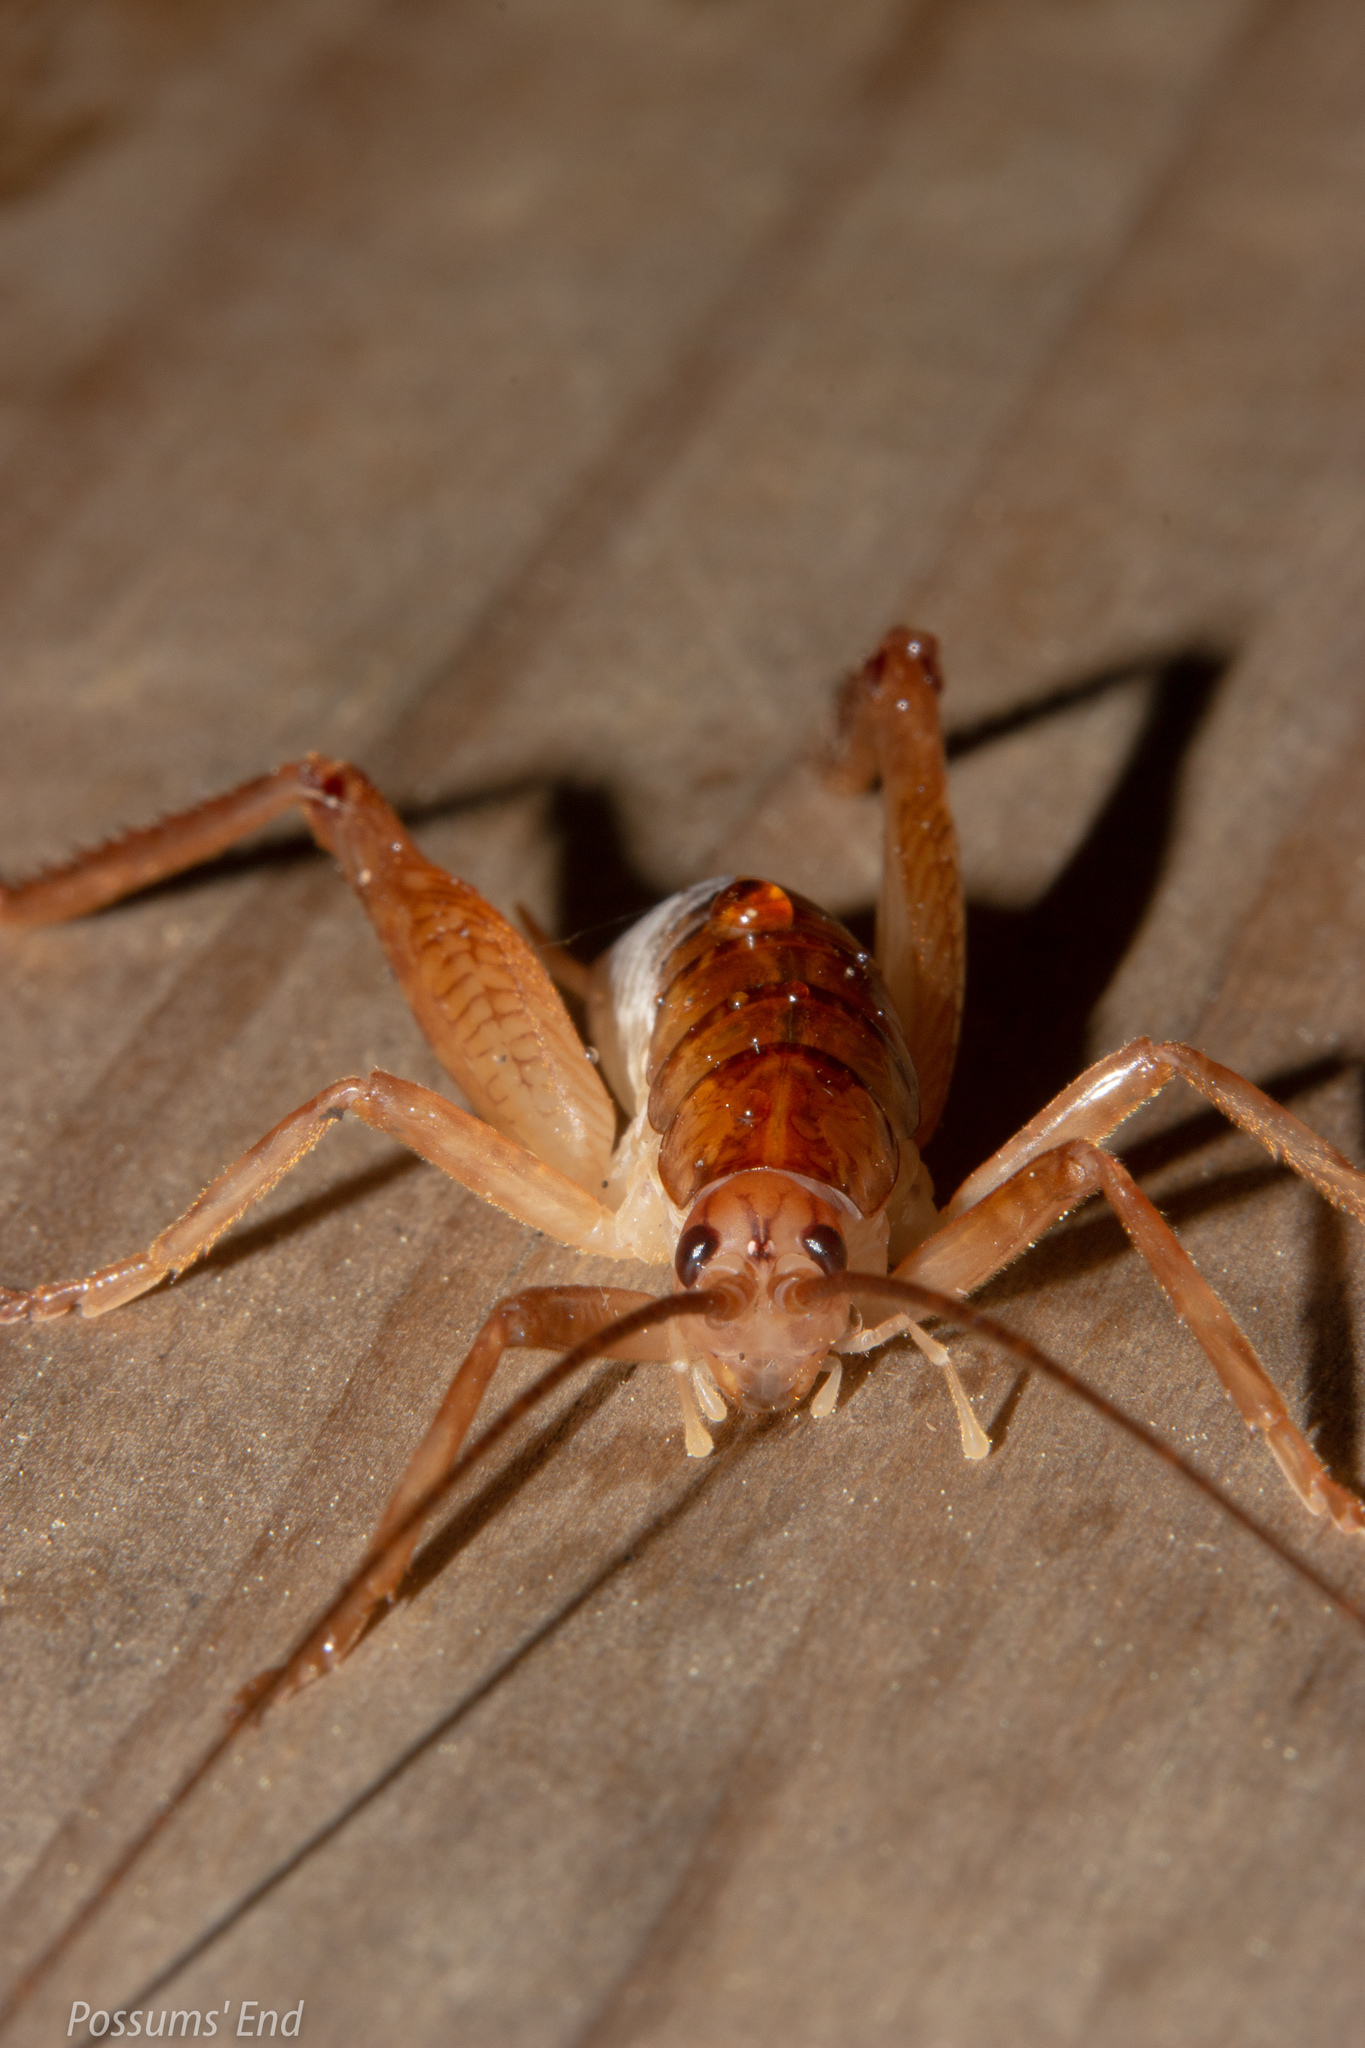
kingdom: Animalia
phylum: Arthropoda
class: Insecta
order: Orthoptera
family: Rhaphidophoridae
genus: Talitropsis
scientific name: Talitropsis sedilloti
